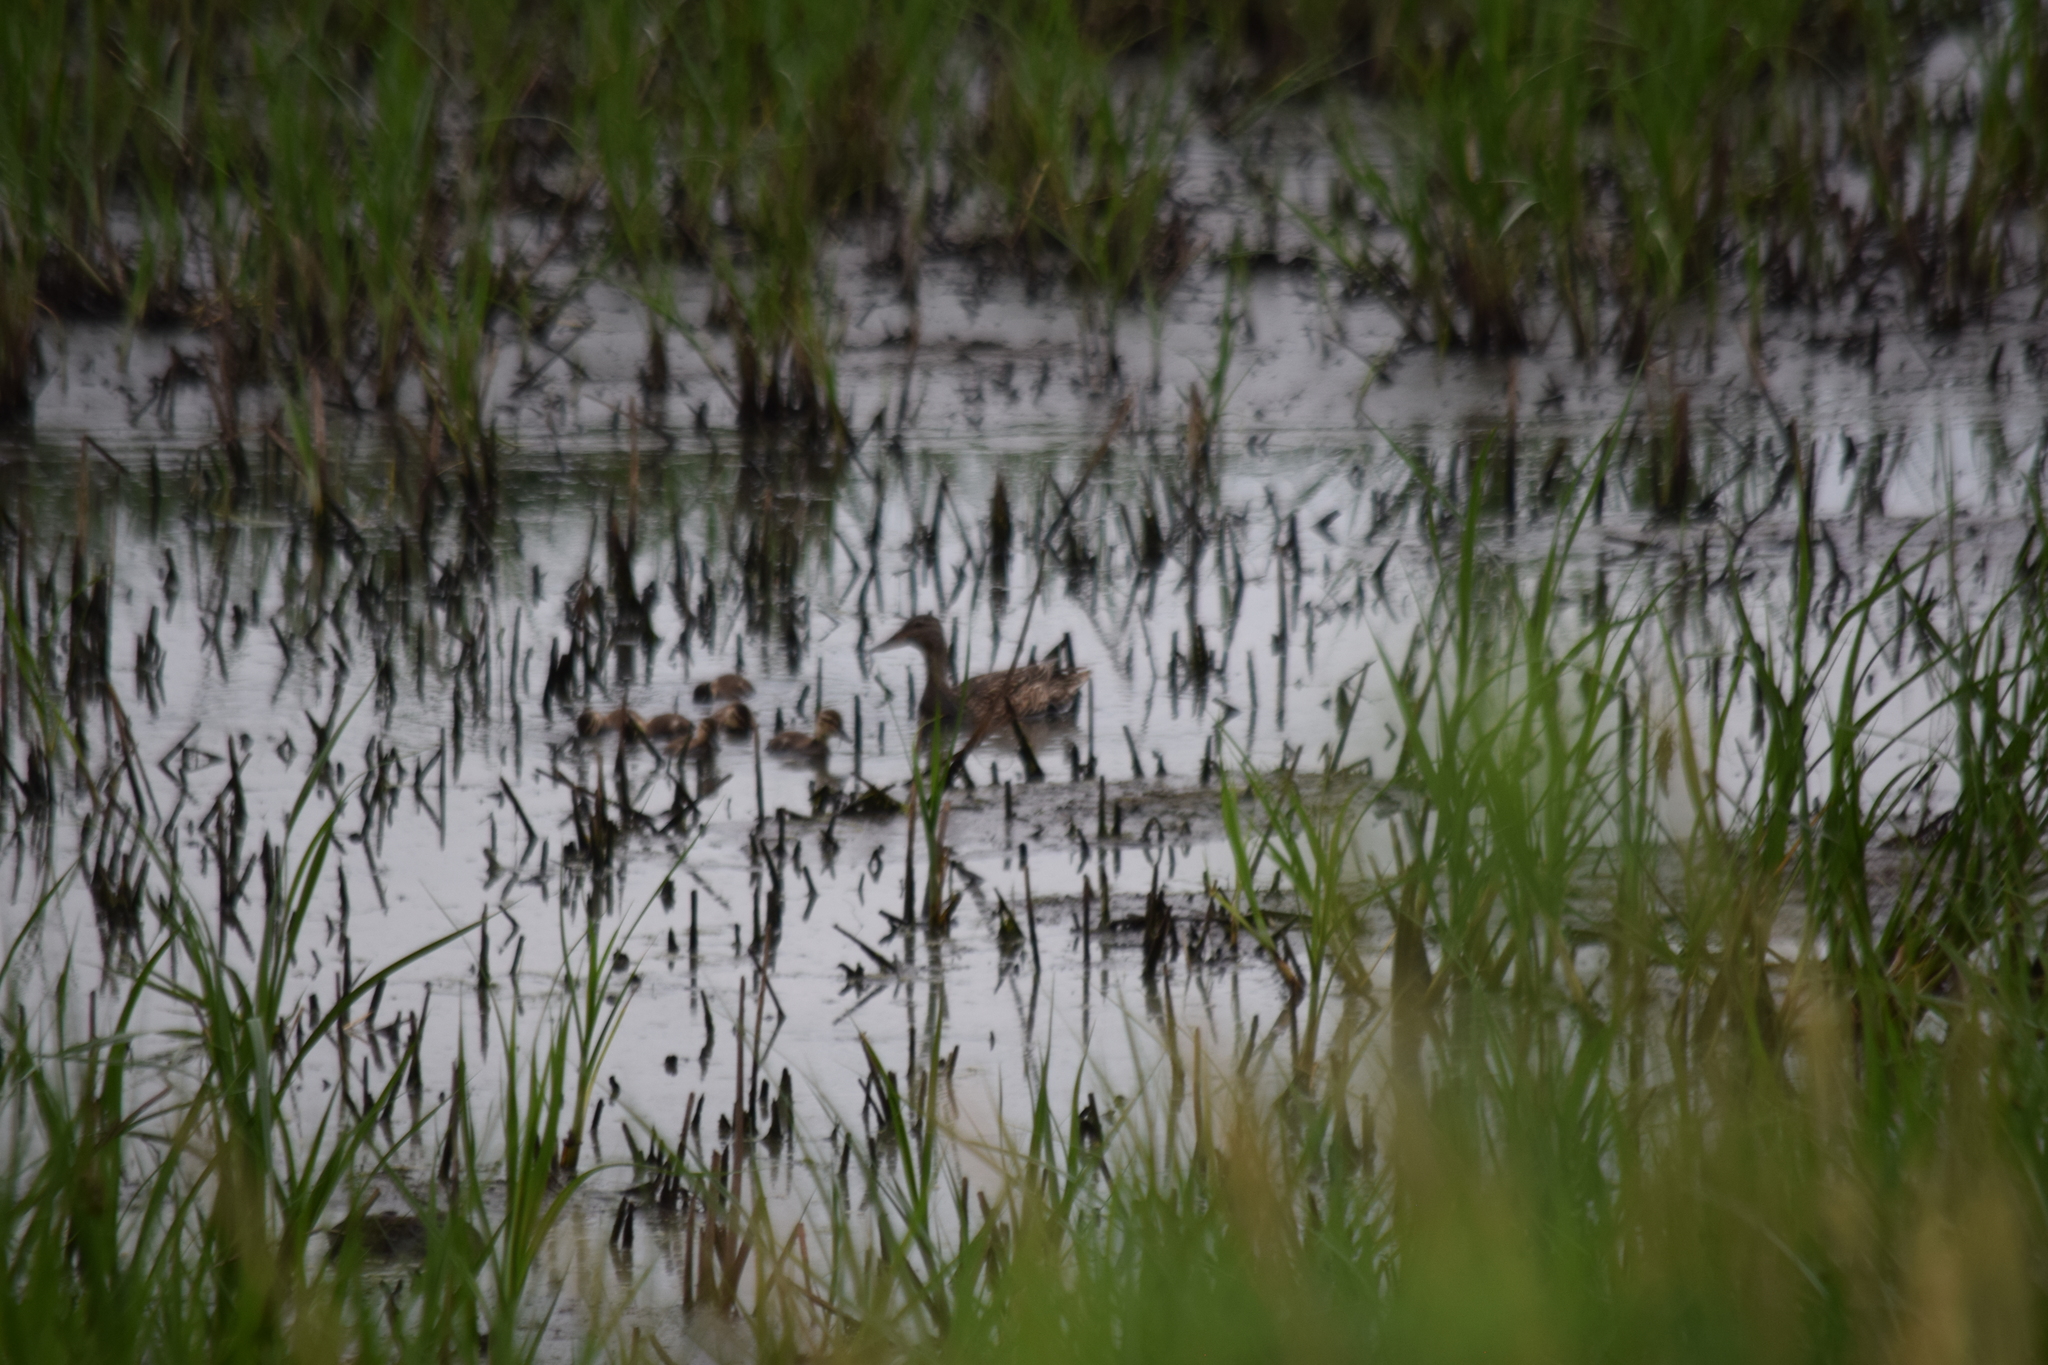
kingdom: Animalia
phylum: Chordata
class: Aves
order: Anseriformes
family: Anatidae
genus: Anas
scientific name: Anas platyrhynchos
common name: Mallard
